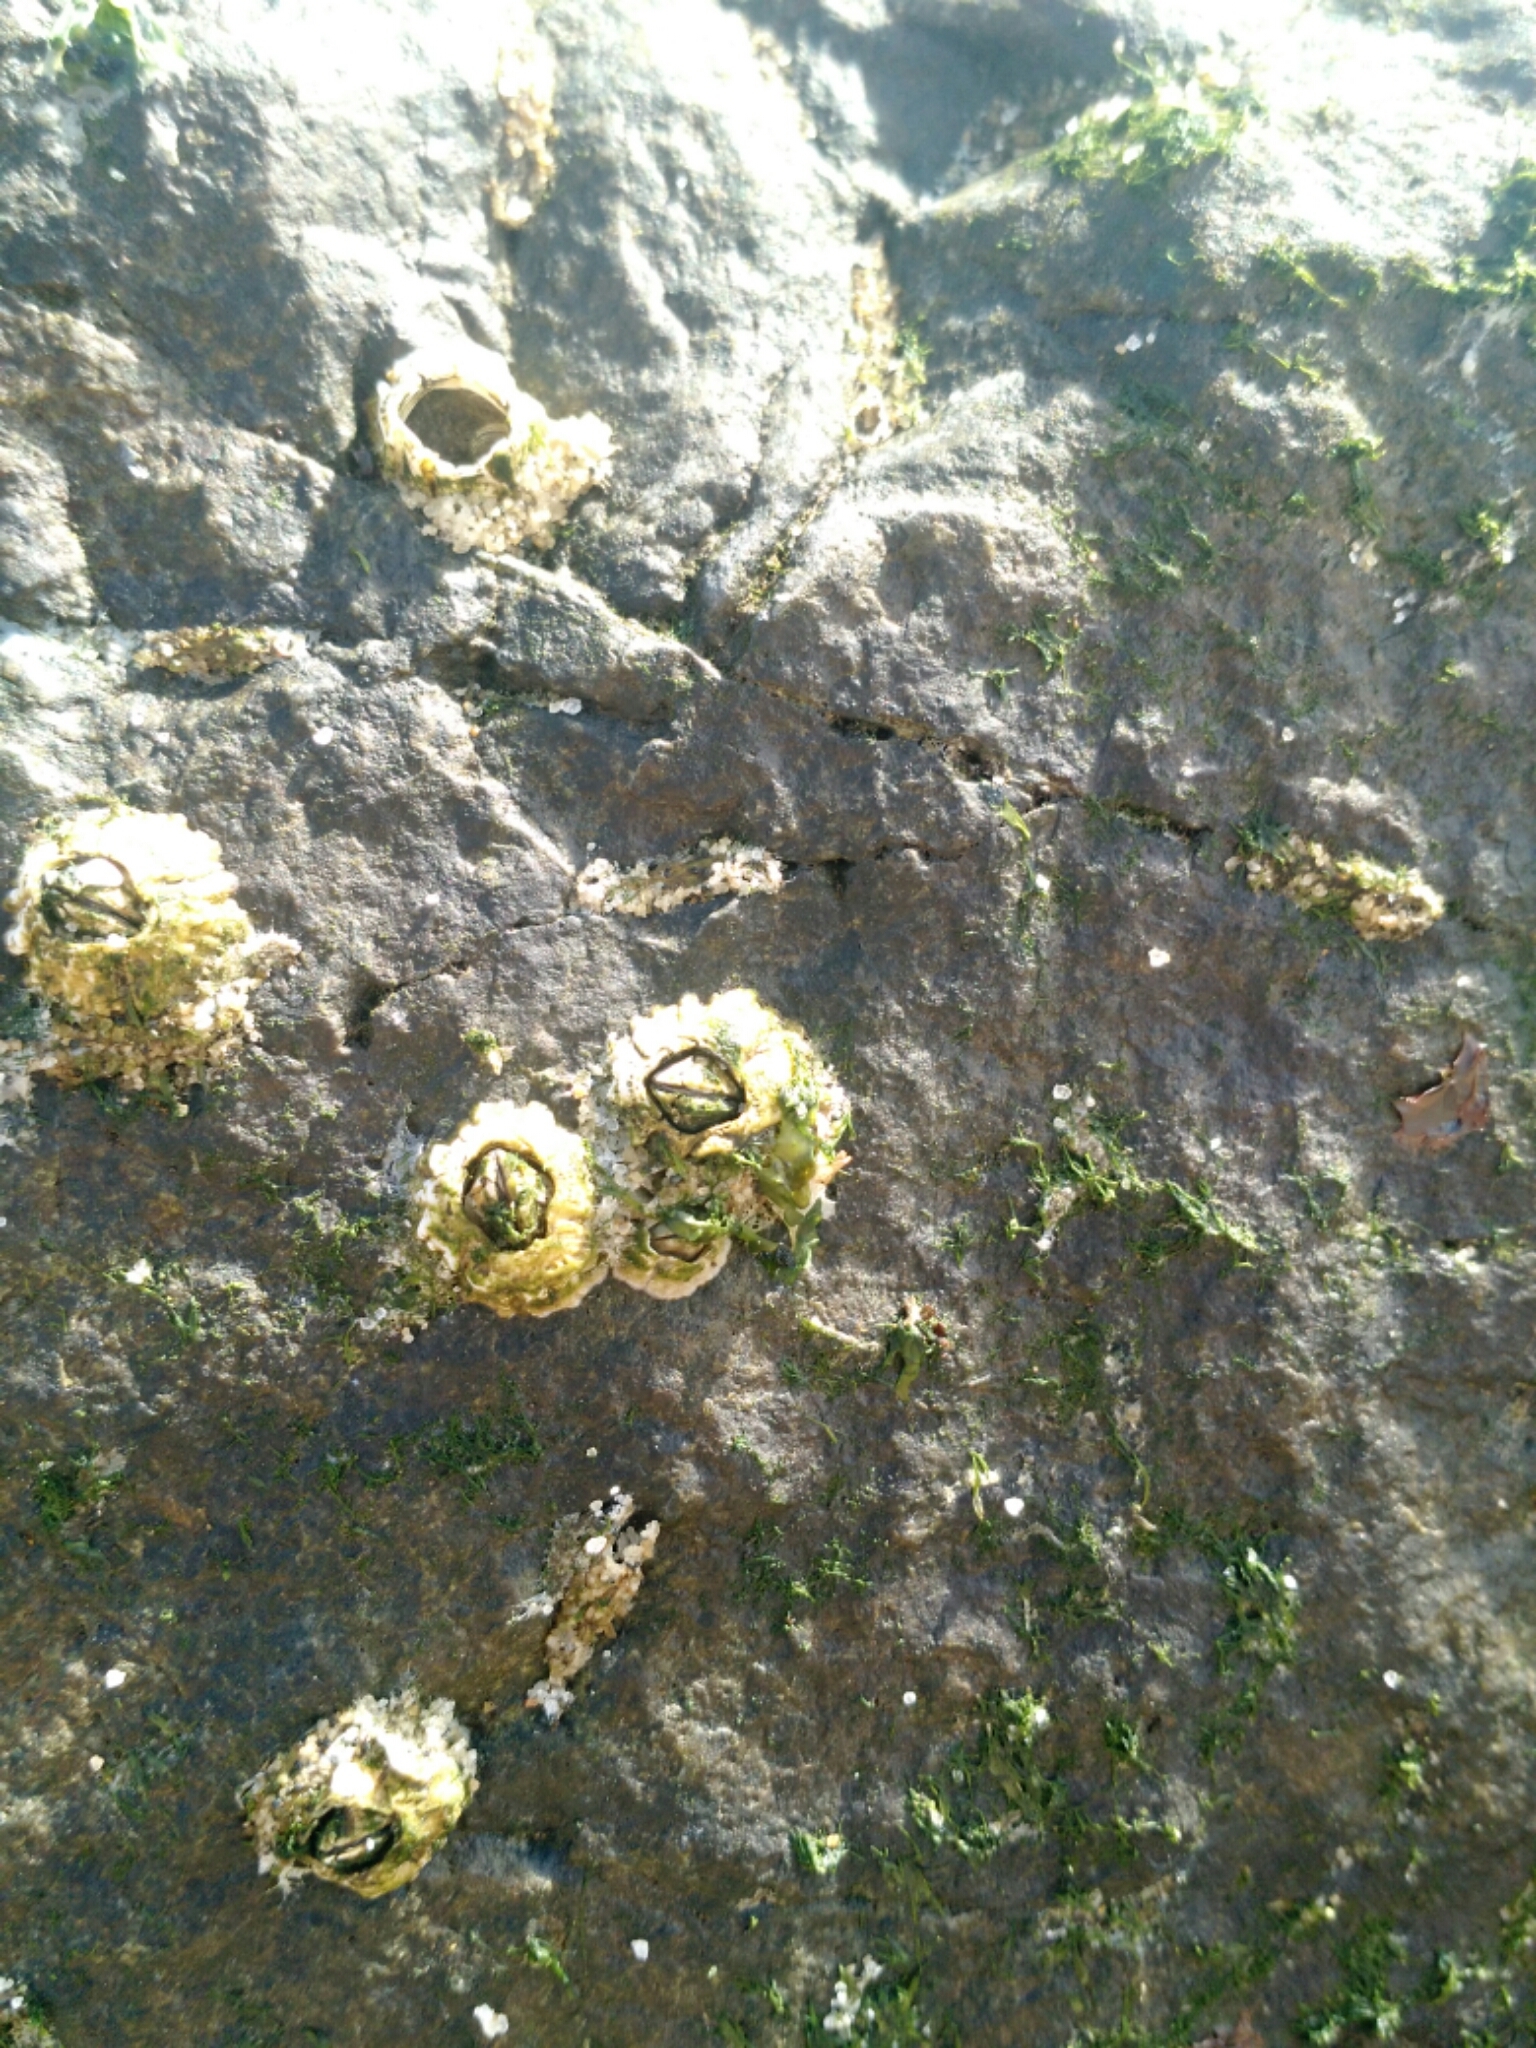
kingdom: Animalia
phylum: Arthropoda
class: Maxillopoda
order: Sessilia
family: Archaeobalanidae
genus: Semibalanus
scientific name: Semibalanus balanoides
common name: Acorn barnacle
